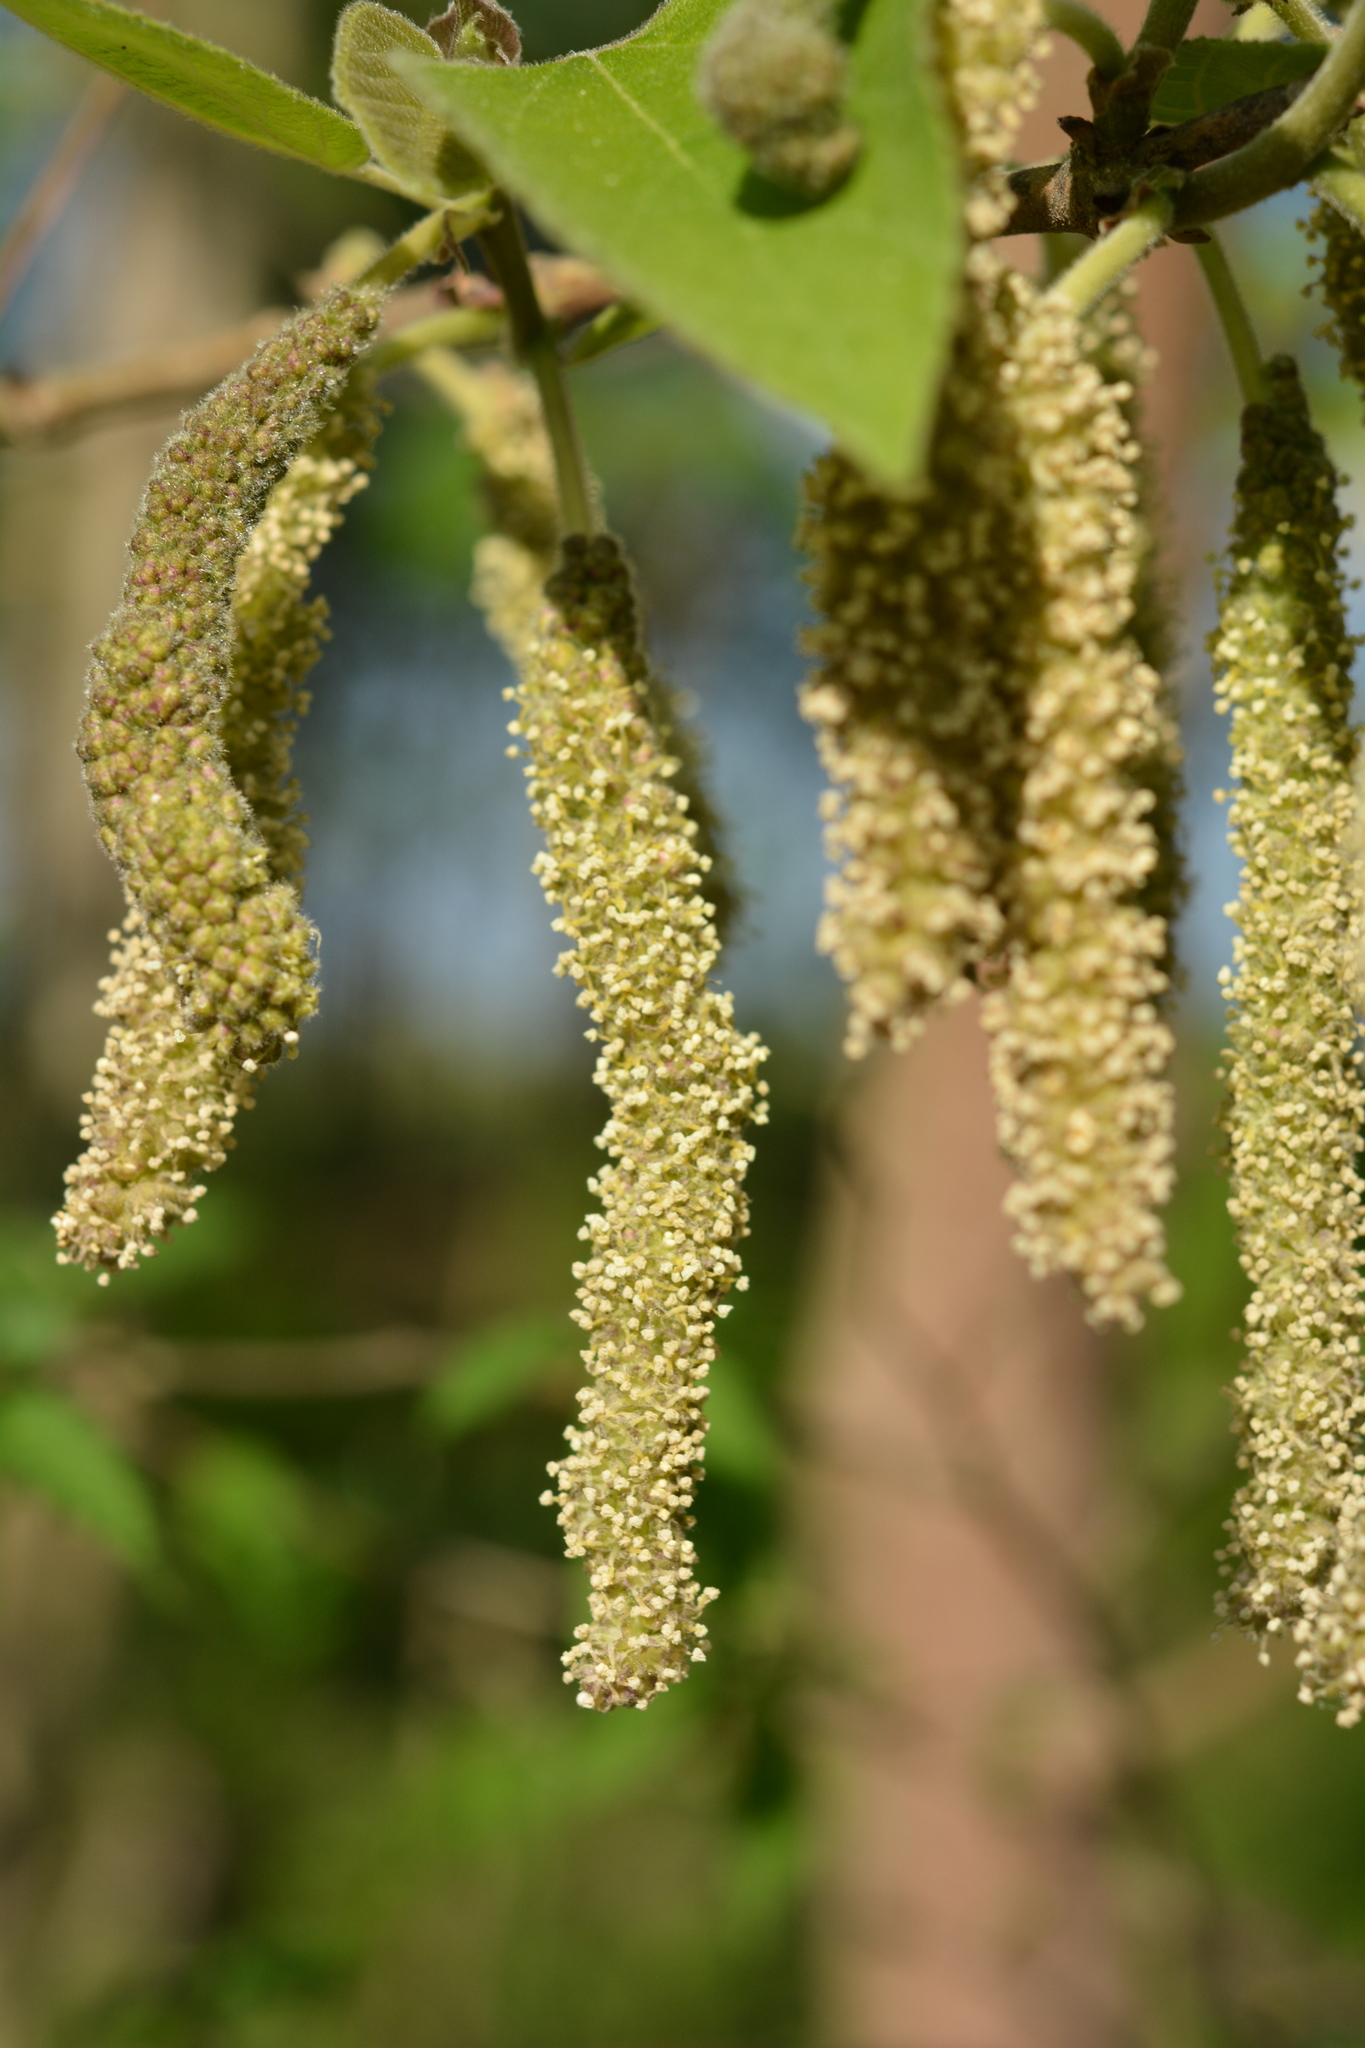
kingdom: Plantae
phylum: Tracheophyta
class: Magnoliopsida
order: Rosales
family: Moraceae
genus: Broussonetia
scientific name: Broussonetia papyrifera
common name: Paper mulberry
